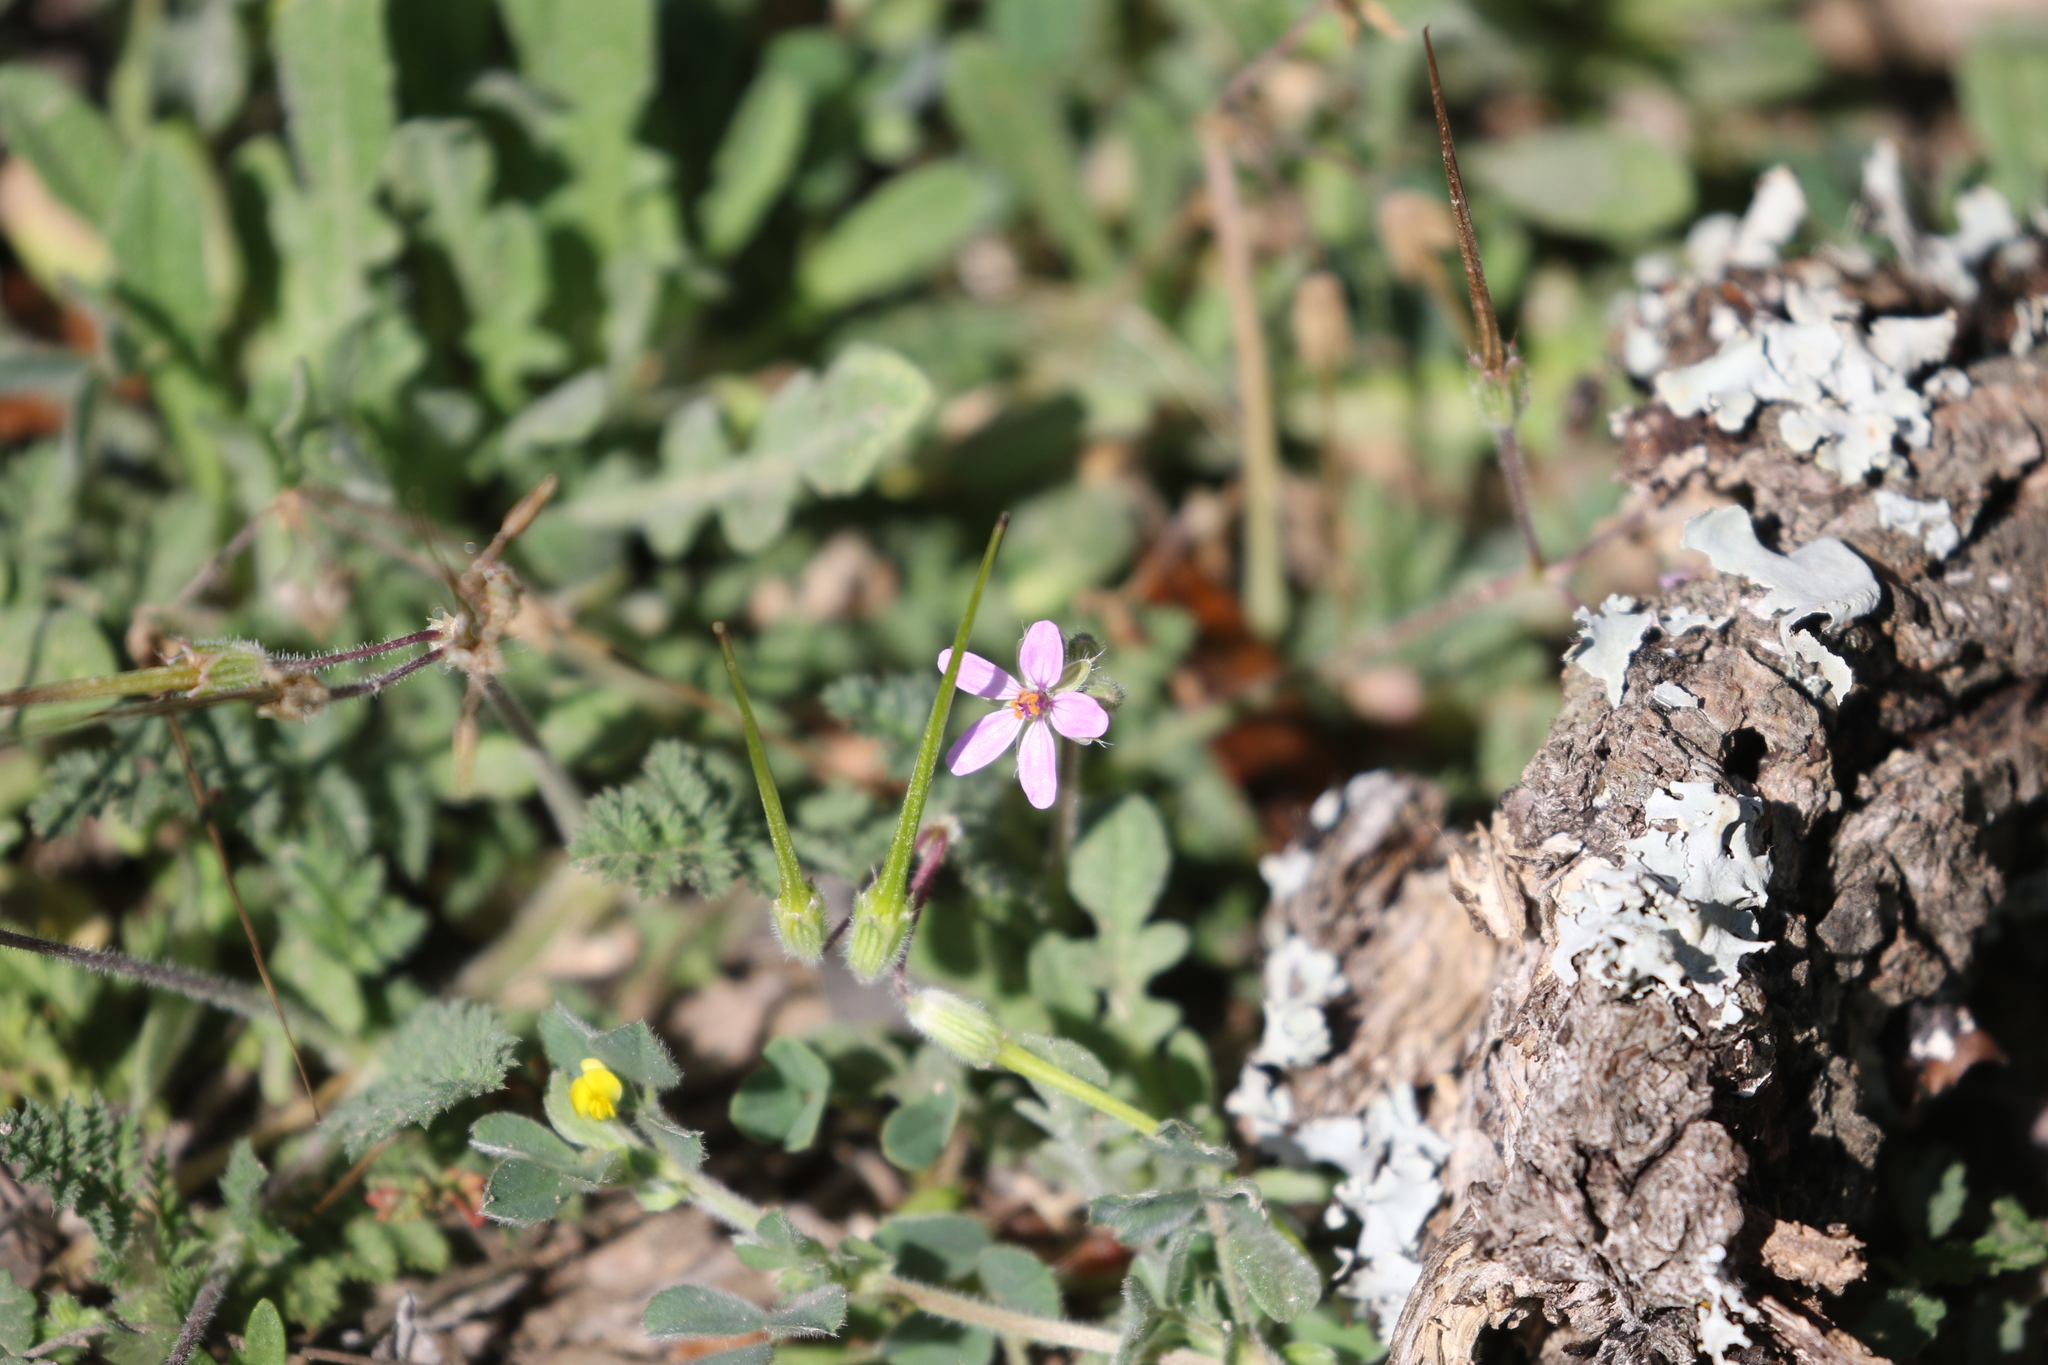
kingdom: Plantae
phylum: Tracheophyta
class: Magnoliopsida
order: Geraniales
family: Geraniaceae
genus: Erodium
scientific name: Erodium cicutarium
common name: Common stork's-bill
